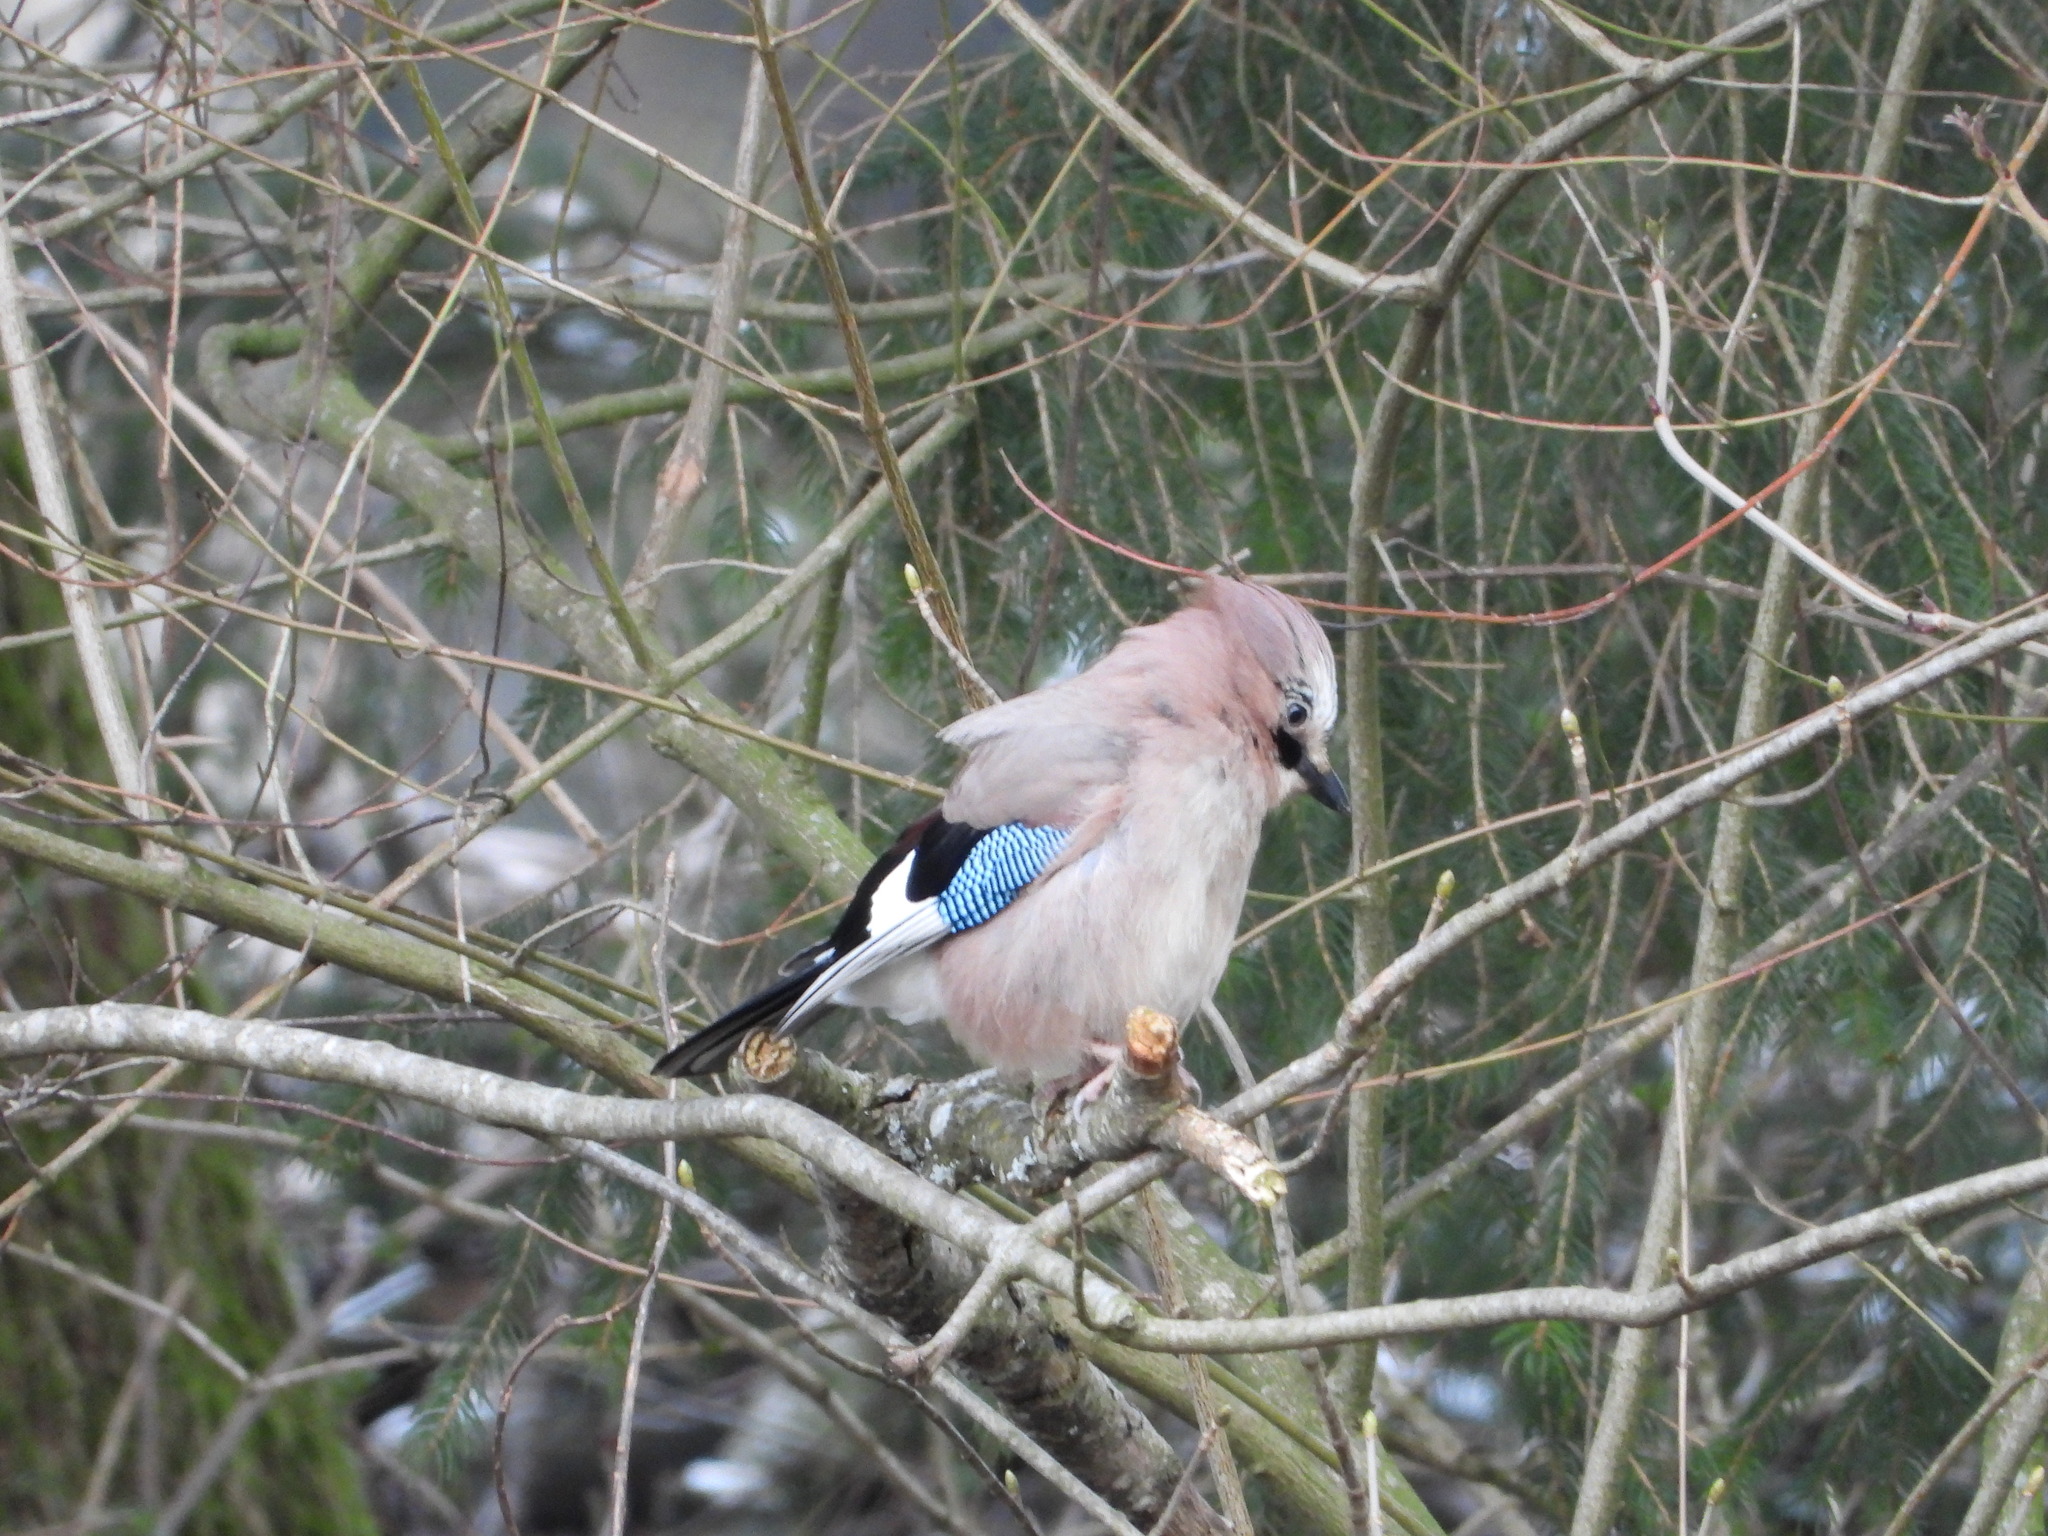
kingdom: Animalia
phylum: Chordata
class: Aves
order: Passeriformes
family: Corvidae
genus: Garrulus
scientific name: Garrulus glandarius
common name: Eurasian jay
